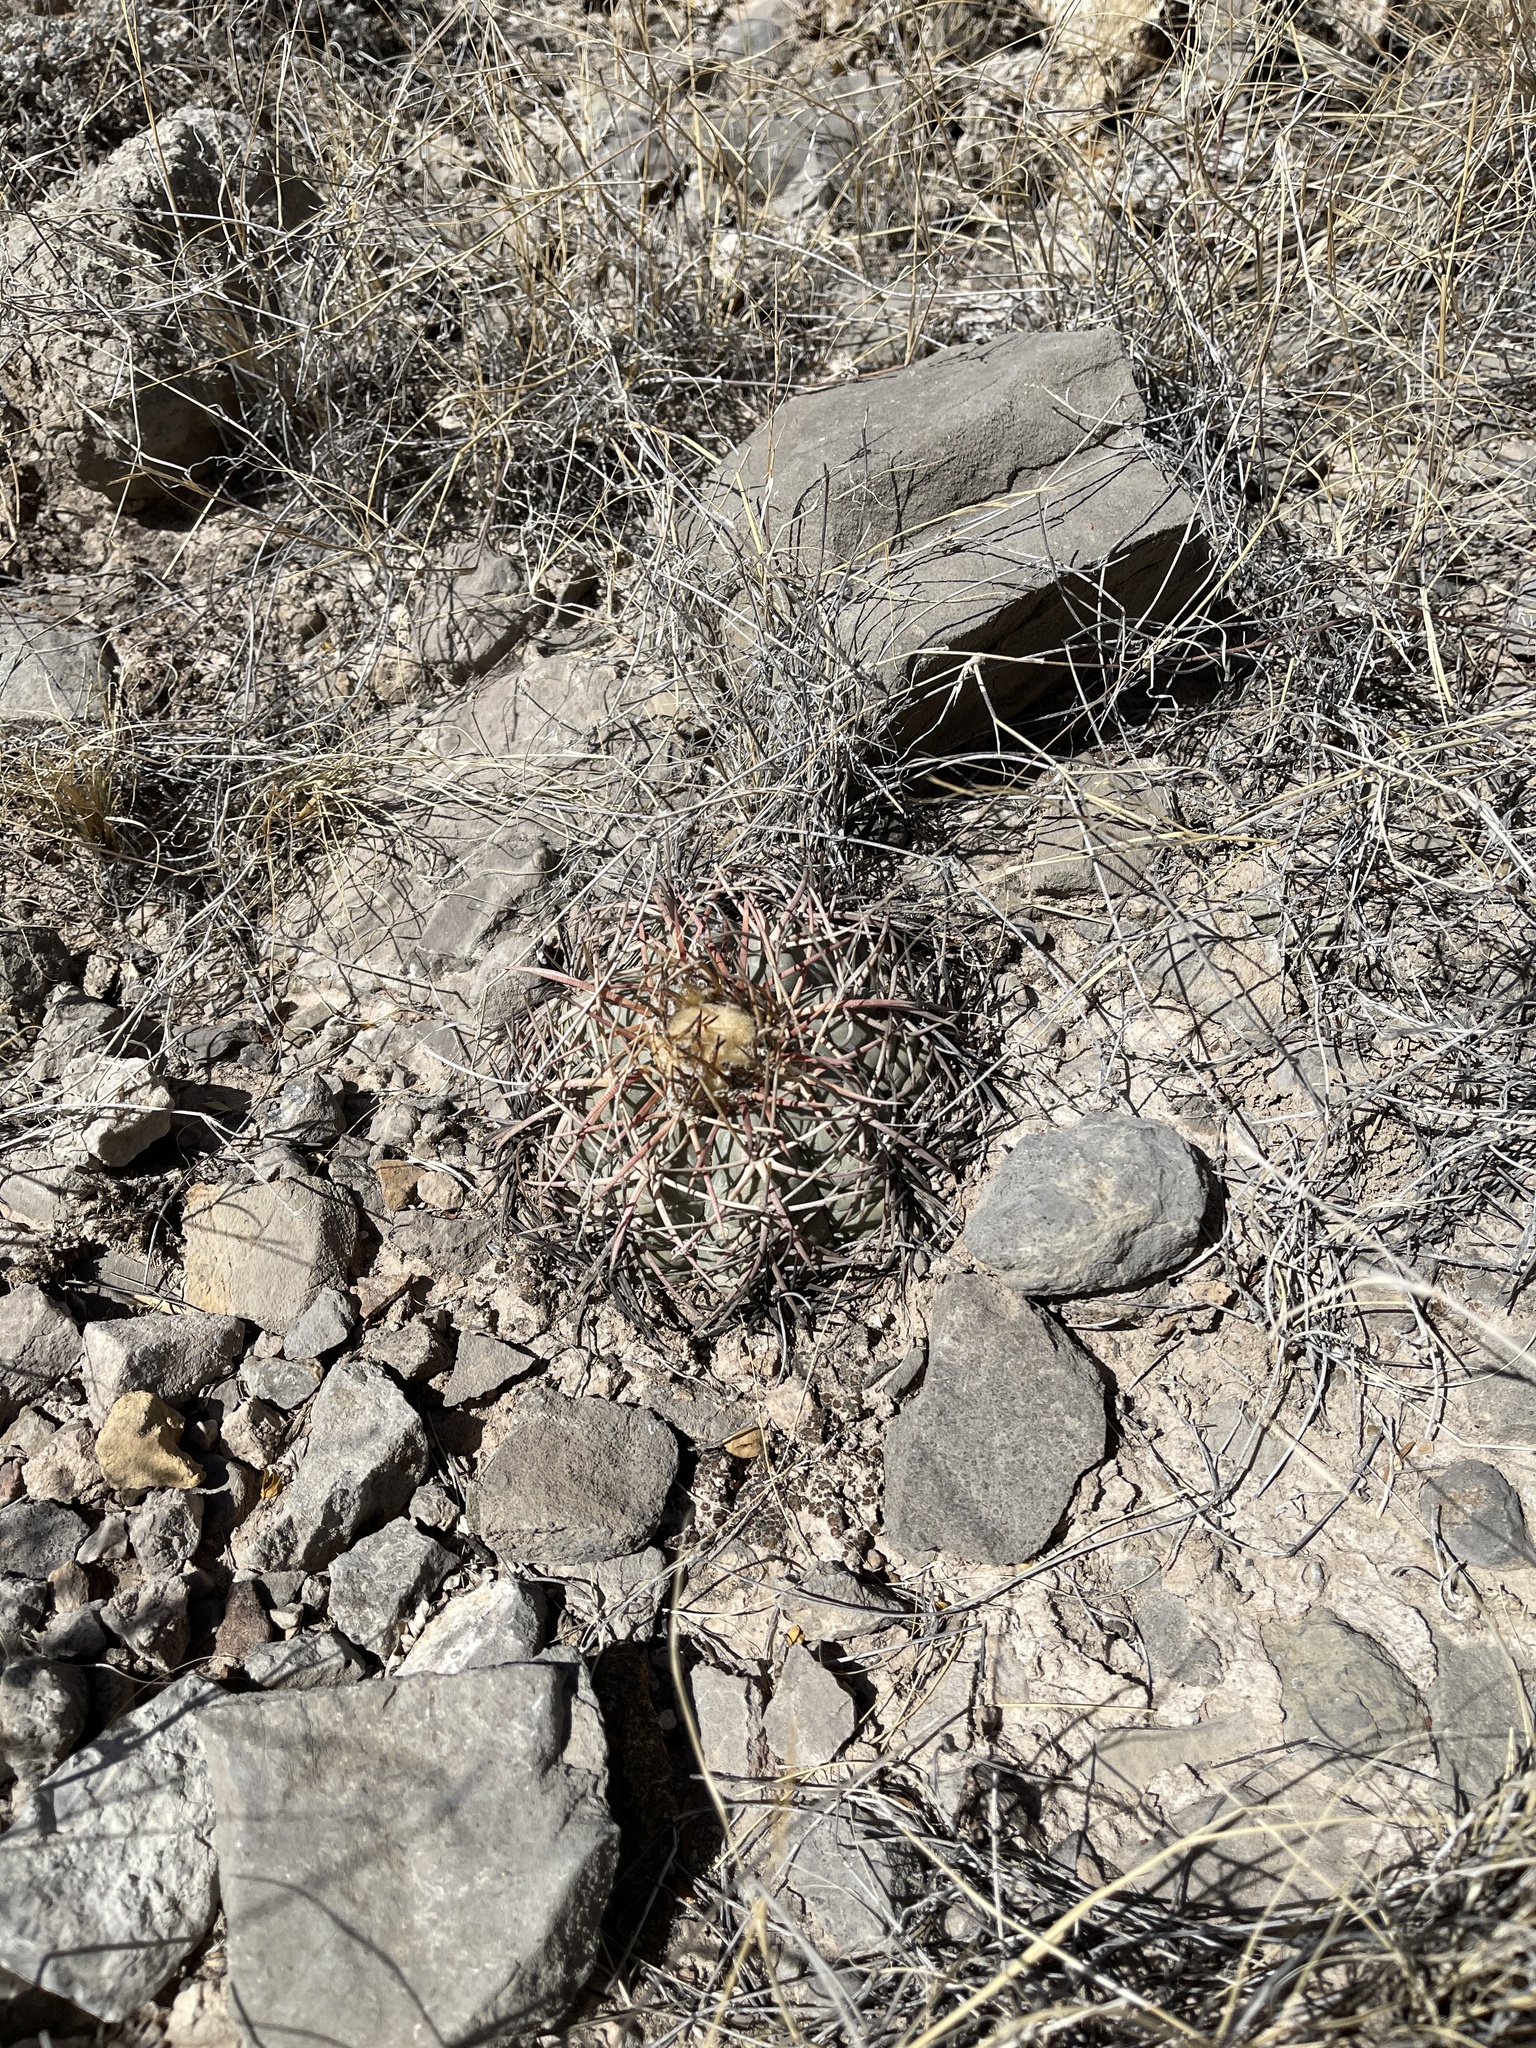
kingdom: Plantae
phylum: Tracheophyta
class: Magnoliopsida
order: Caryophyllales
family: Cactaceae
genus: Echinocactus
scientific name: Echinocactus horizonthalonius
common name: Devilshead
